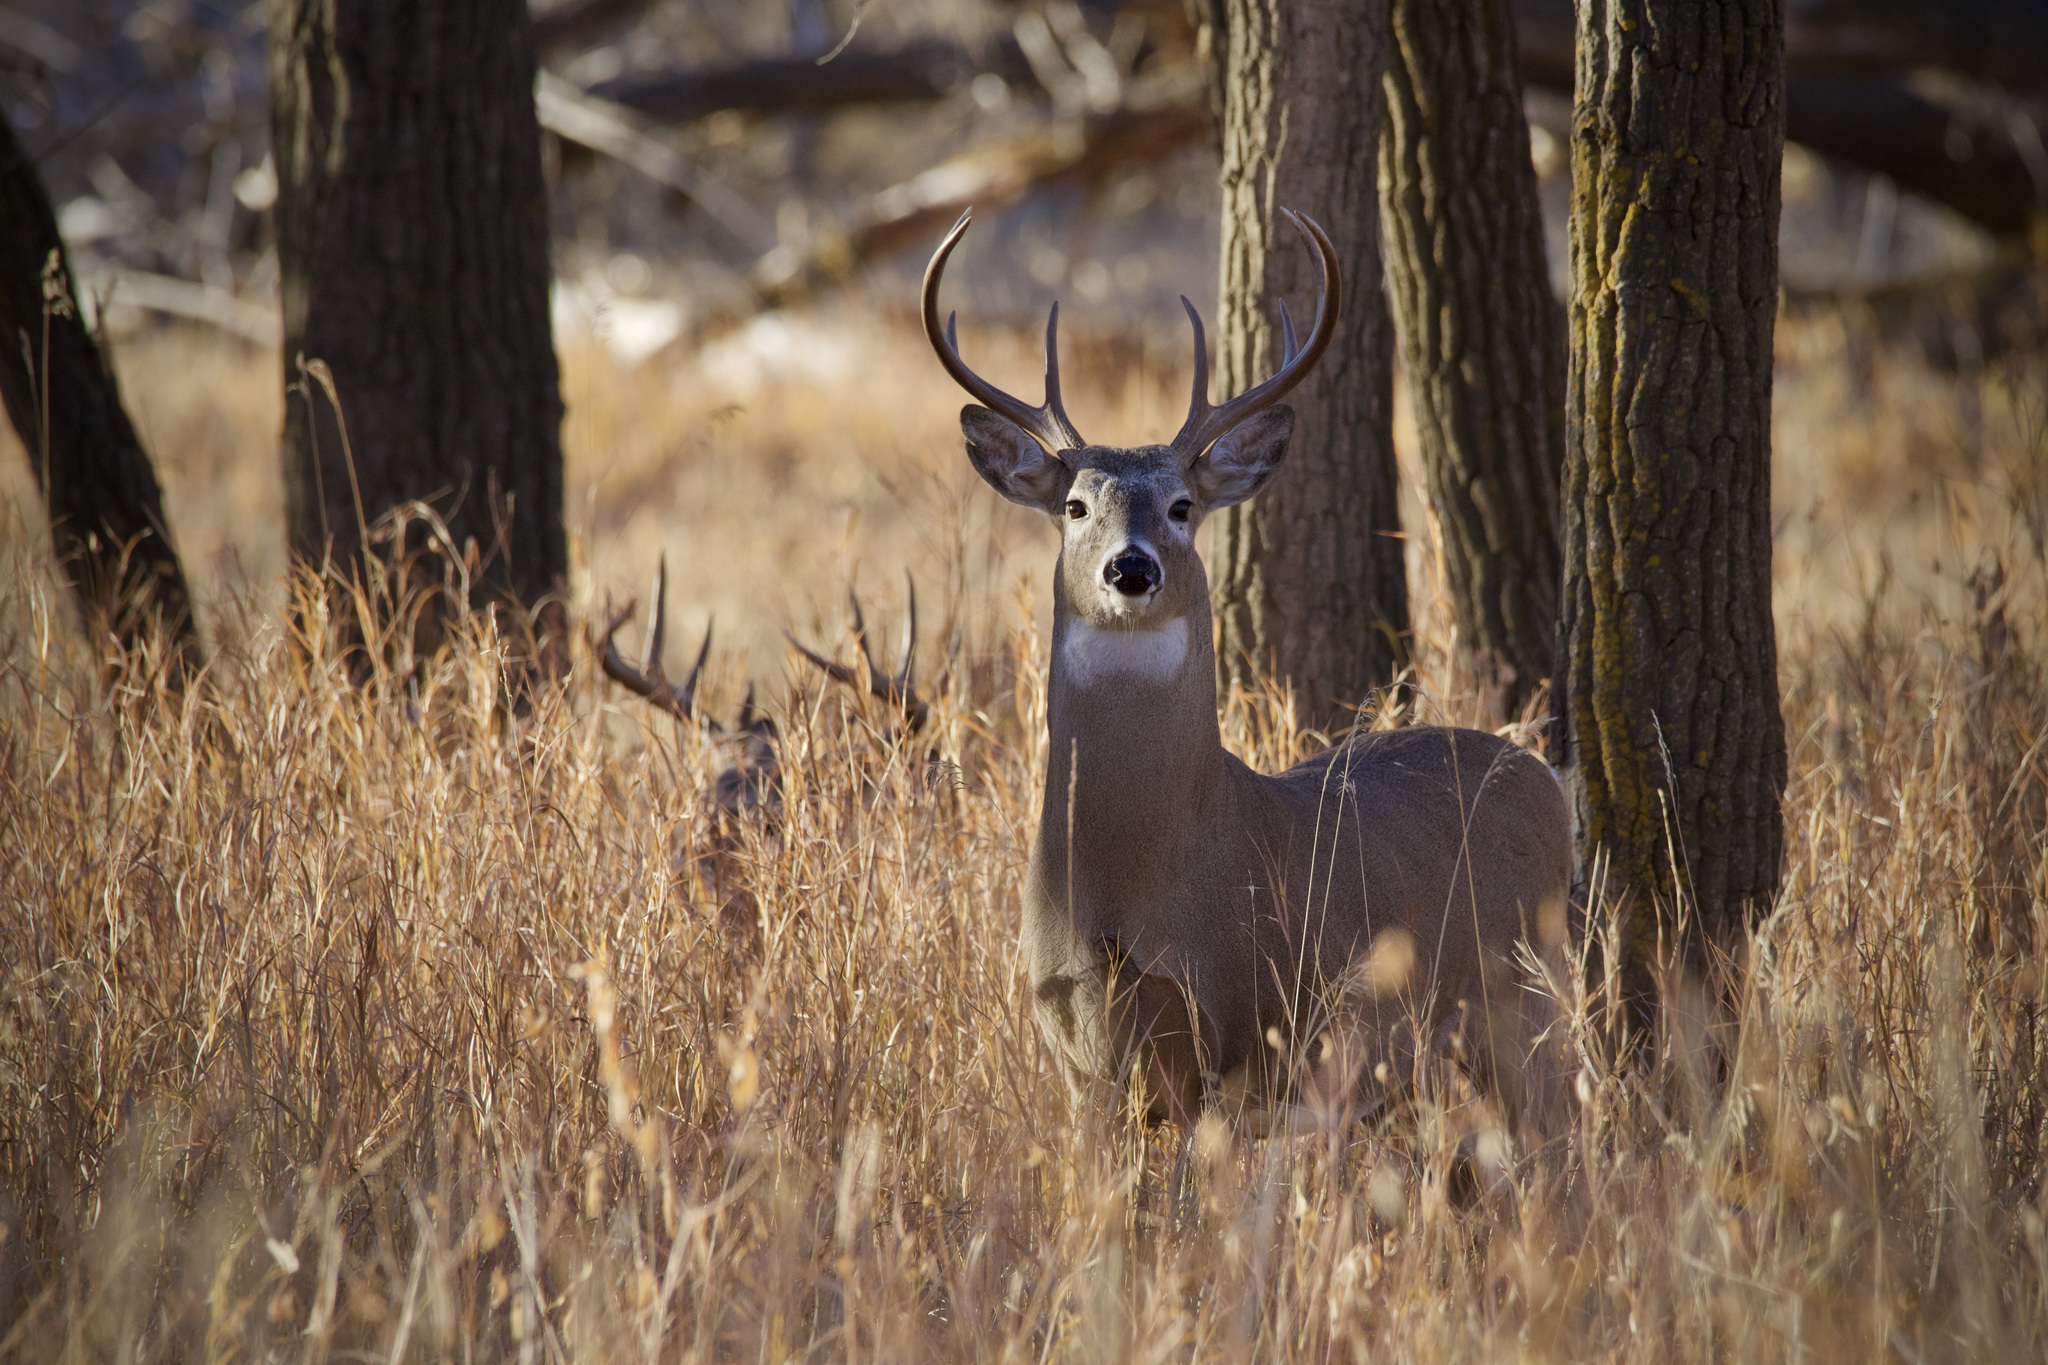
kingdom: Animalia
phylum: Chordata
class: Mammalia
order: Artiodactyla
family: Cervidae
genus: Odocoileus
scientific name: Odocoileus virginianus
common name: White-tailed deer
